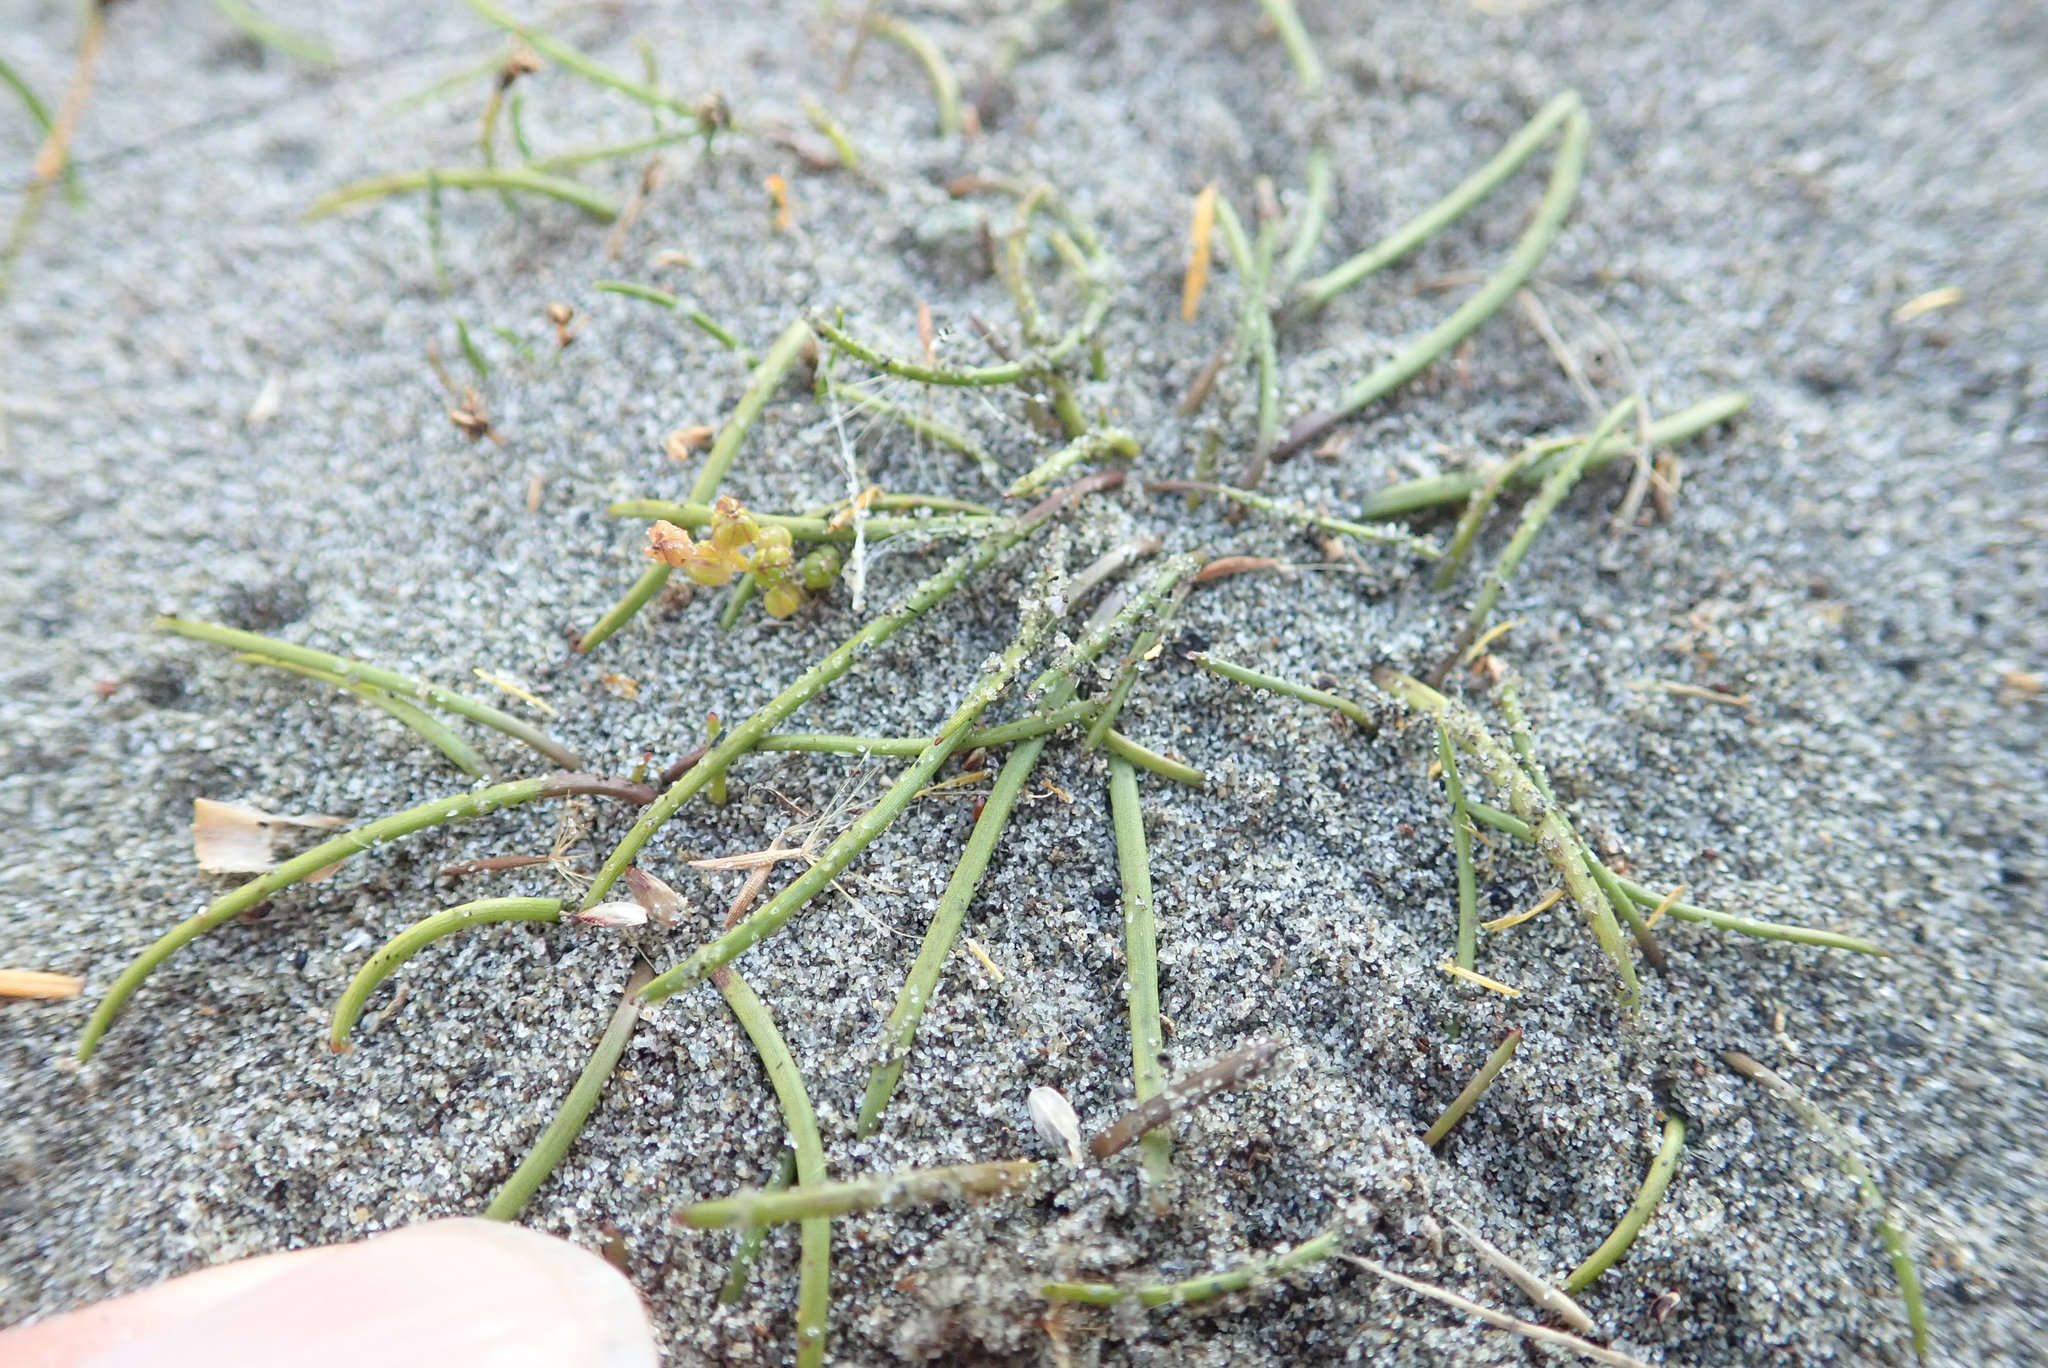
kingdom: Plantae
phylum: Tracheophyta
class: Liliopsida
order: Alismatales
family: Juncaginaceae
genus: Triglochin
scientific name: Triglochin striata
